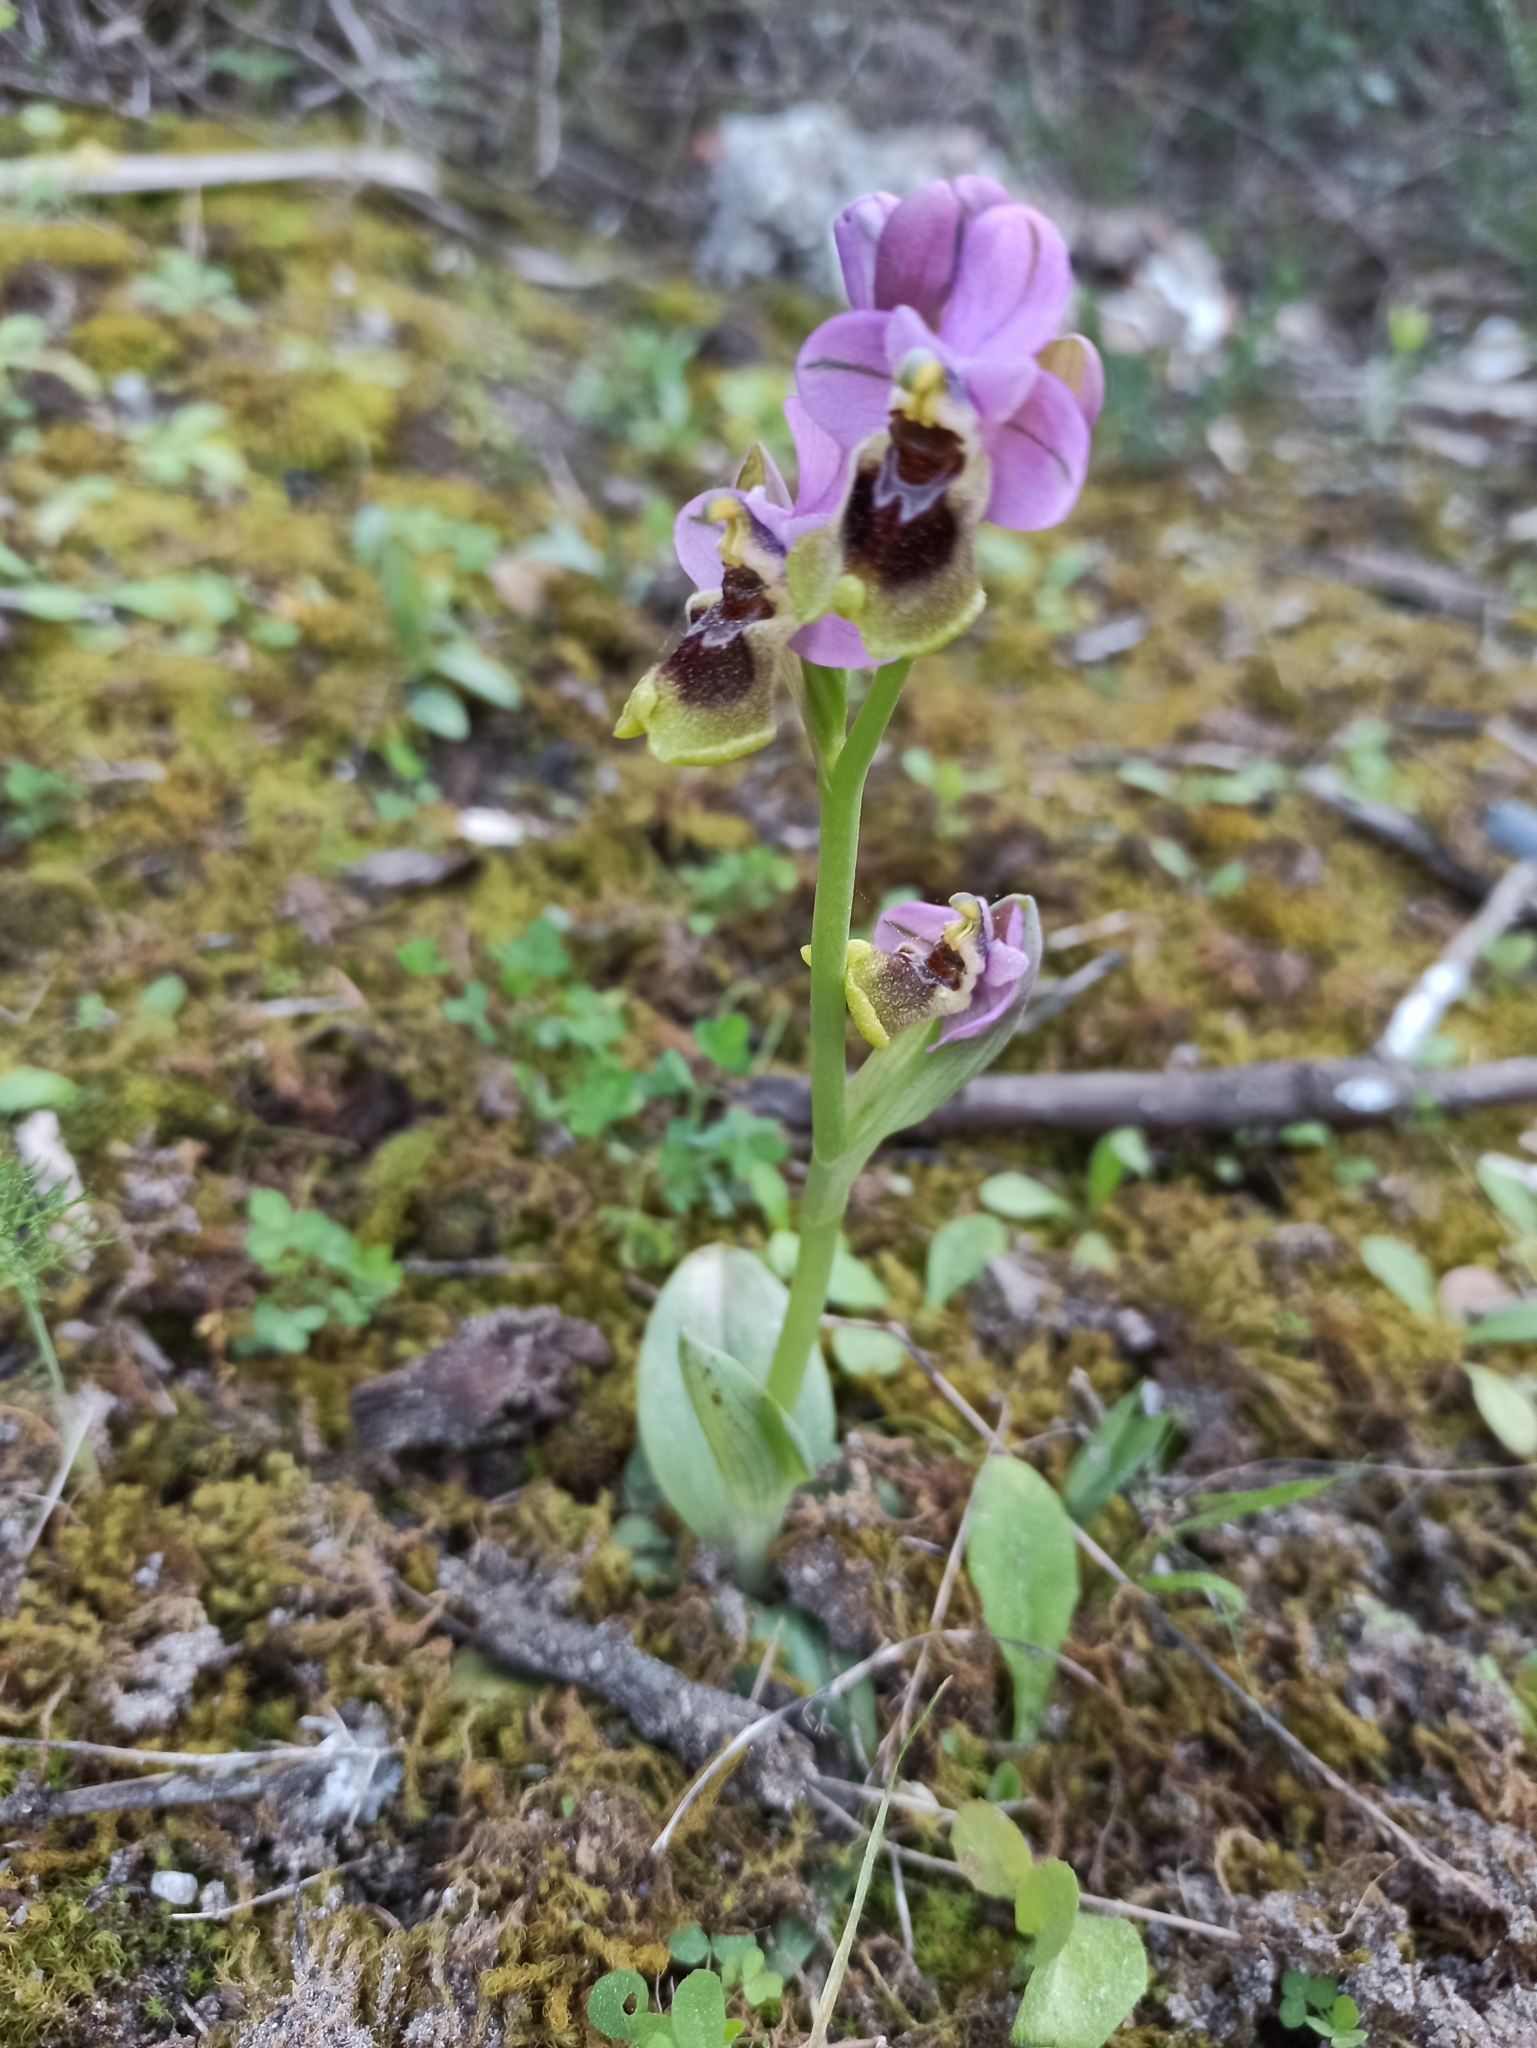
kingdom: Plantae
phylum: Tracheophyta
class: Liliopsida
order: Asparagales
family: Orchidaceae
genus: Ophrys
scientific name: Ophrys tenthredinifera
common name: Sawfly orchid
